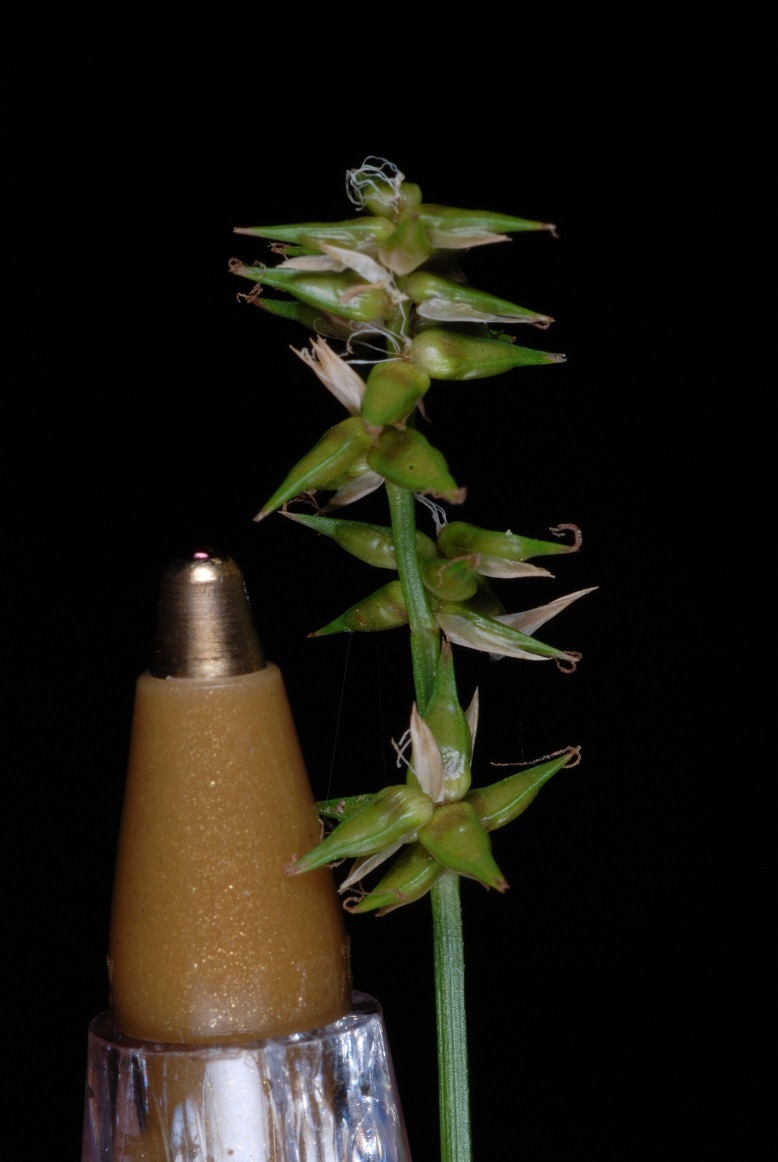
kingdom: Plantae
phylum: Tracheophyta
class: Liliopsida
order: Poales
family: Cyperaceae
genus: Carex
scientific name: Carex texensis
